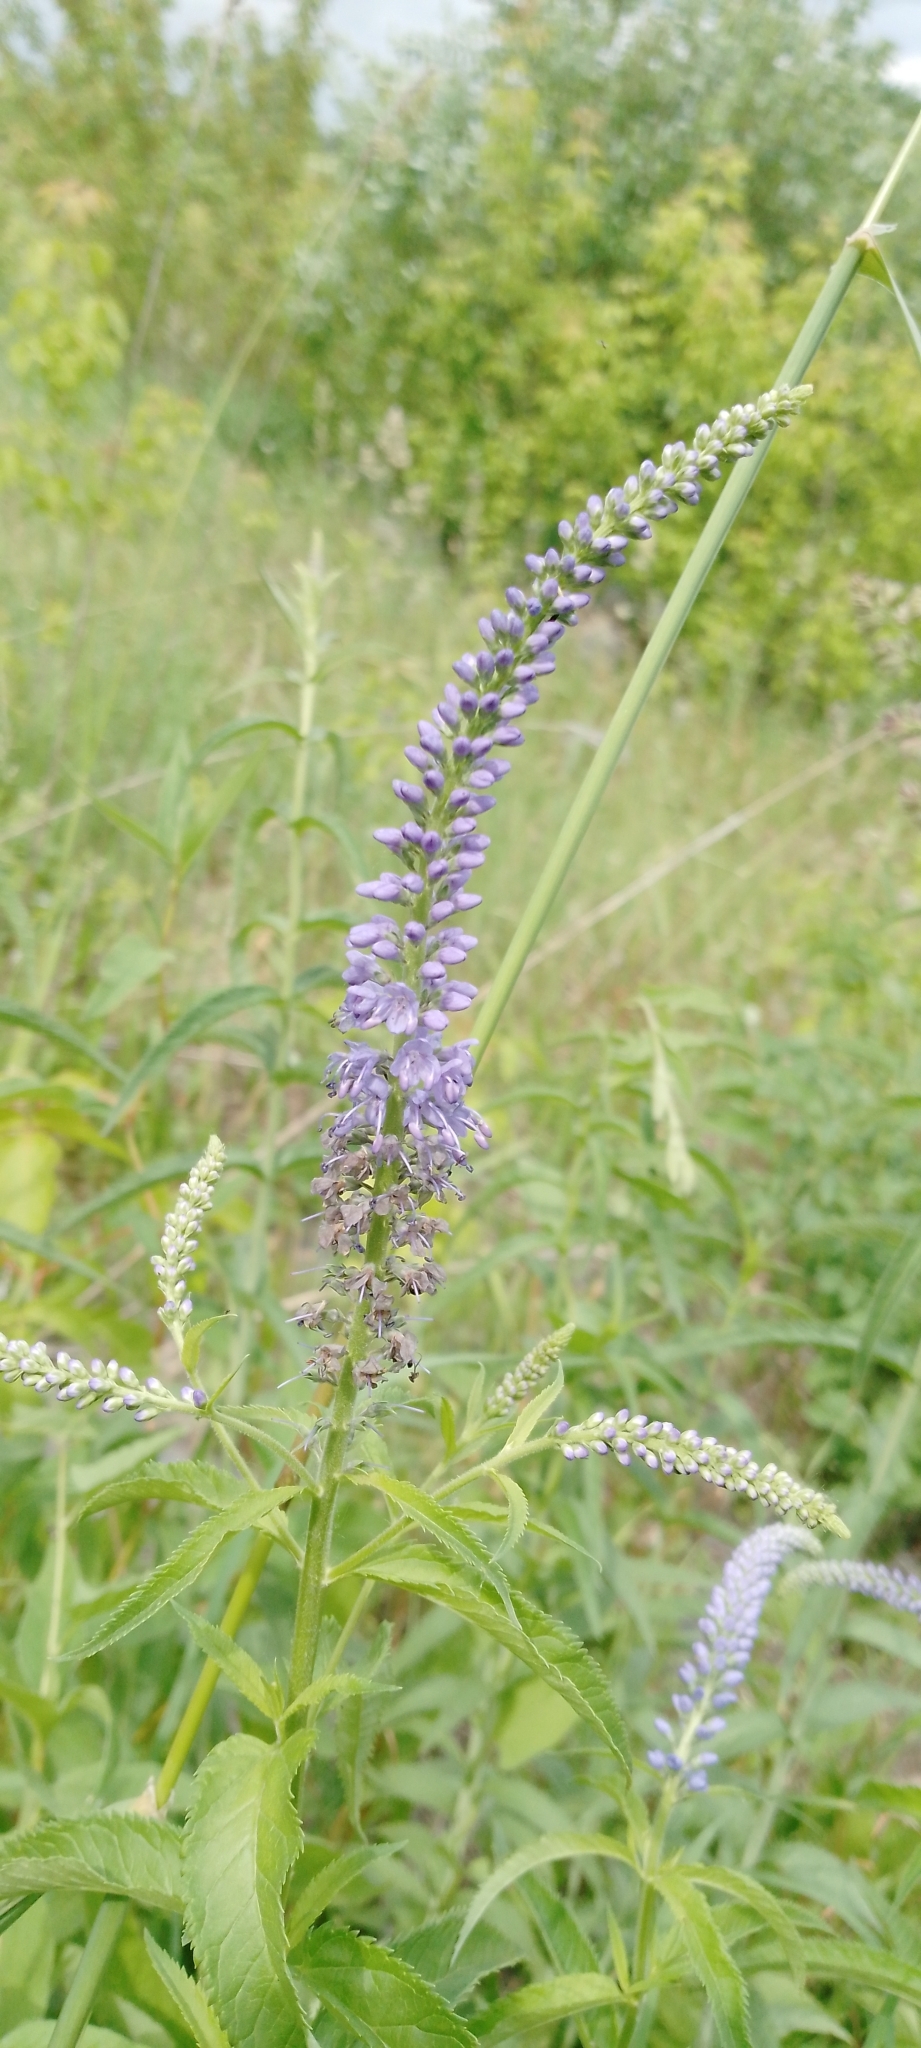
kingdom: Plantae
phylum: Tracheophyta
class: Magnoliopsida
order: Lamiales
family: Plantaginaceae
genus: Veronica
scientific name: Veronica longifolia
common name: Garden speedwell
